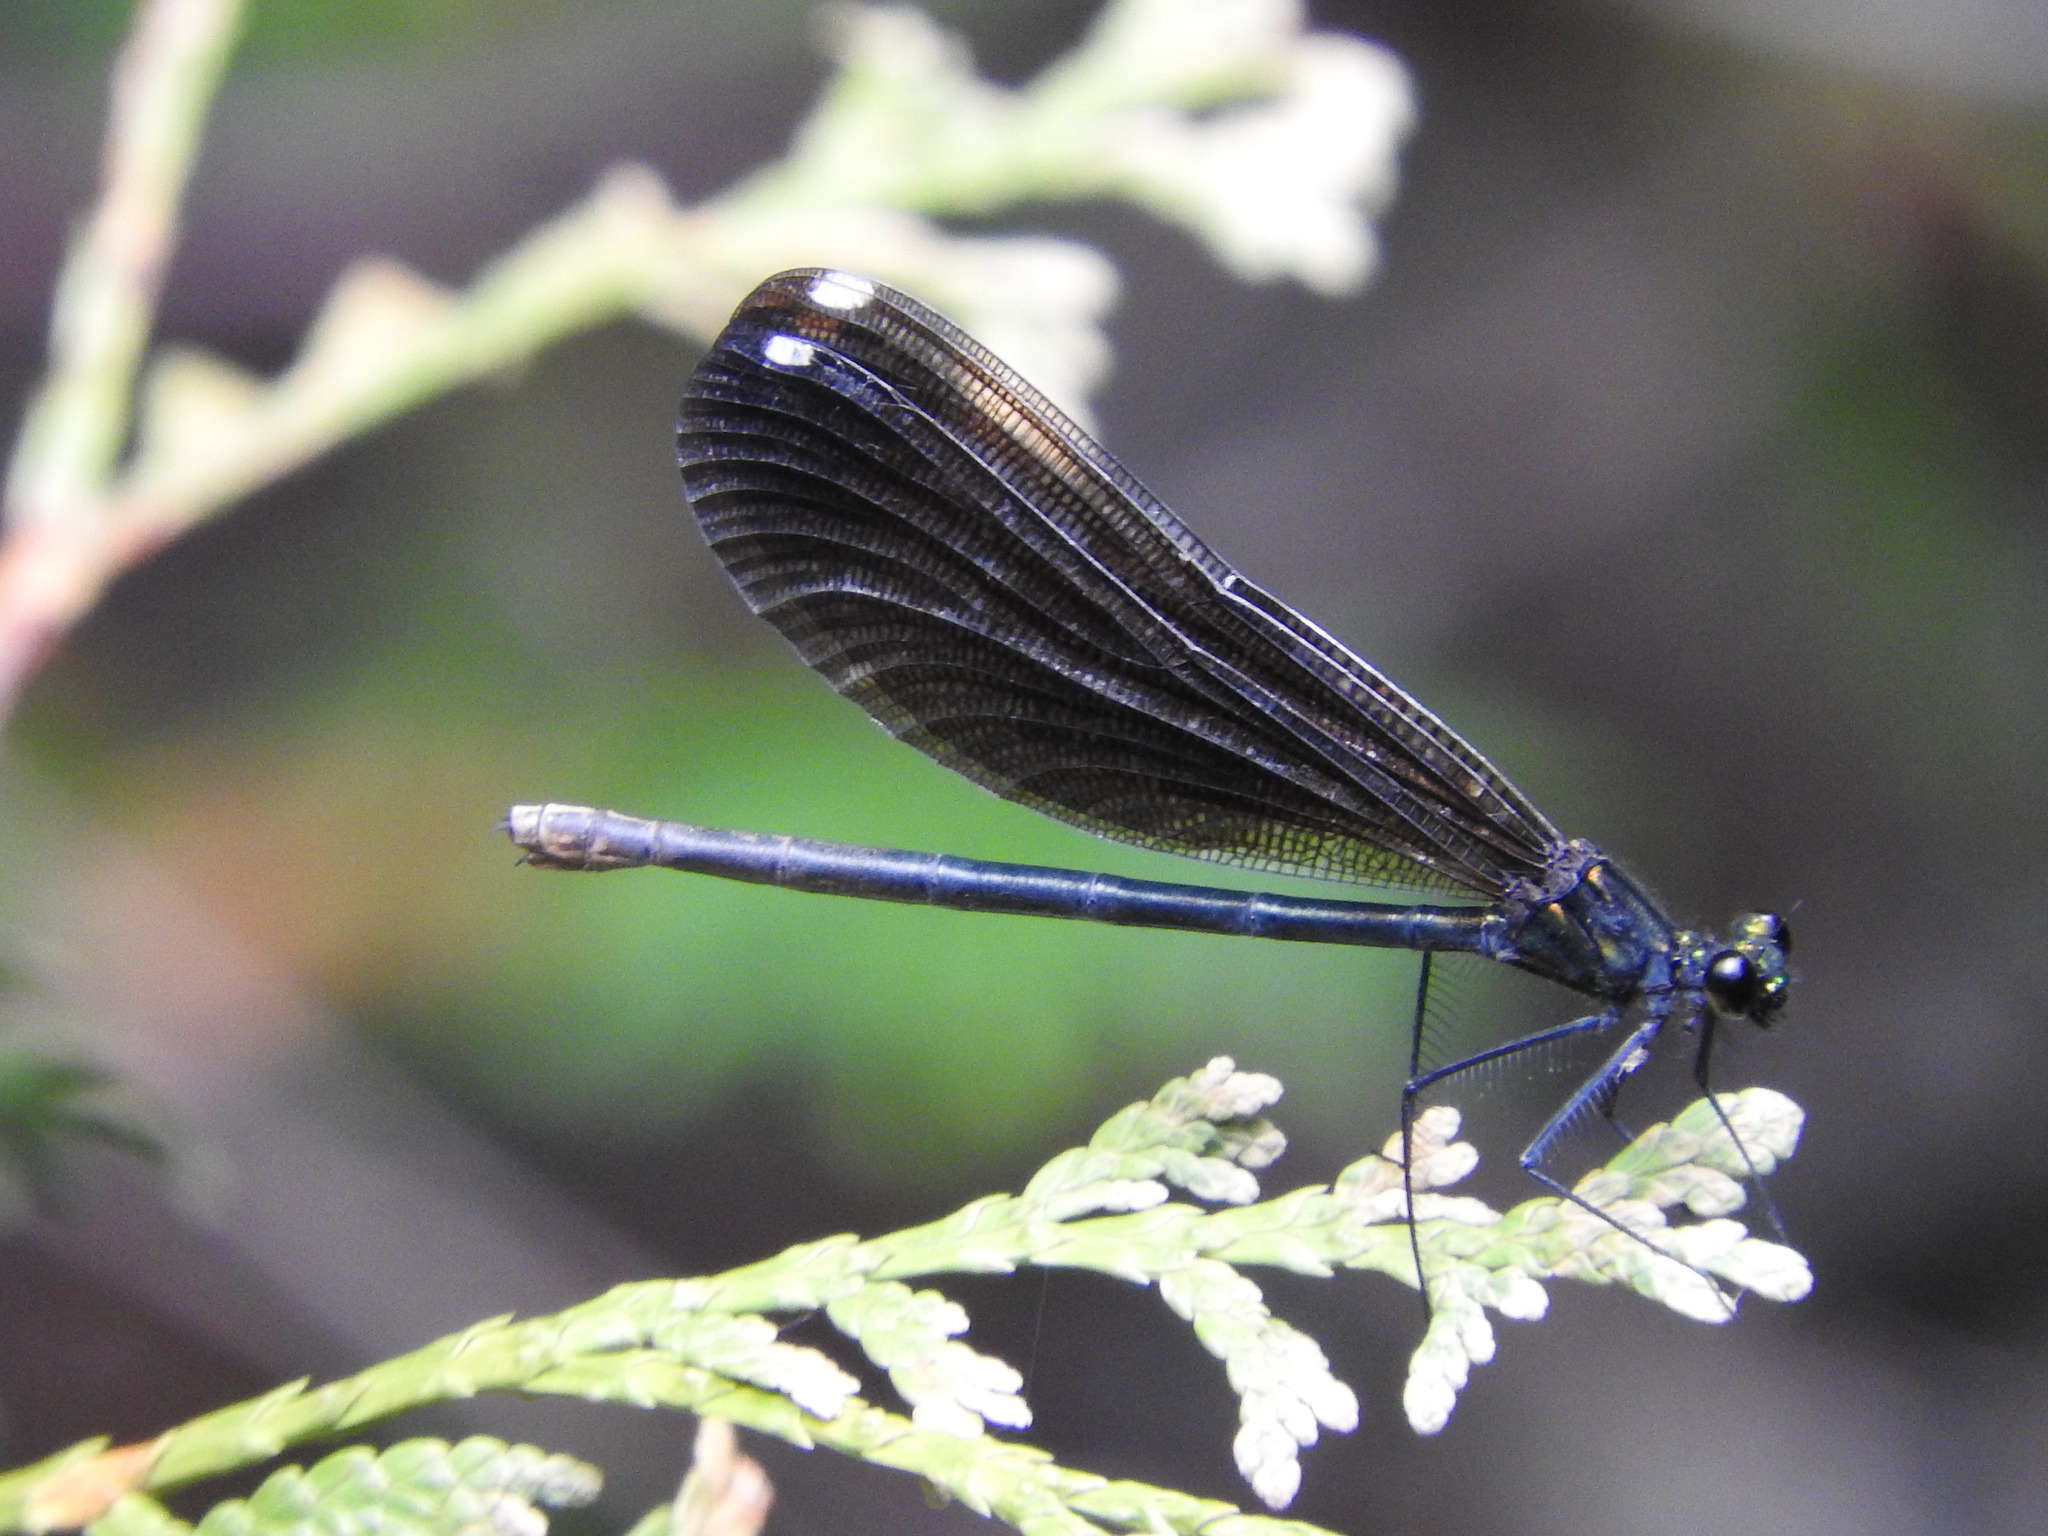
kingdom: Animalia
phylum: Arthropoda
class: Insecta
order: Odonata
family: Calopterygidae
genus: Calopteryx
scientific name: Calopteryx maculata
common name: Ebony jewelwing
